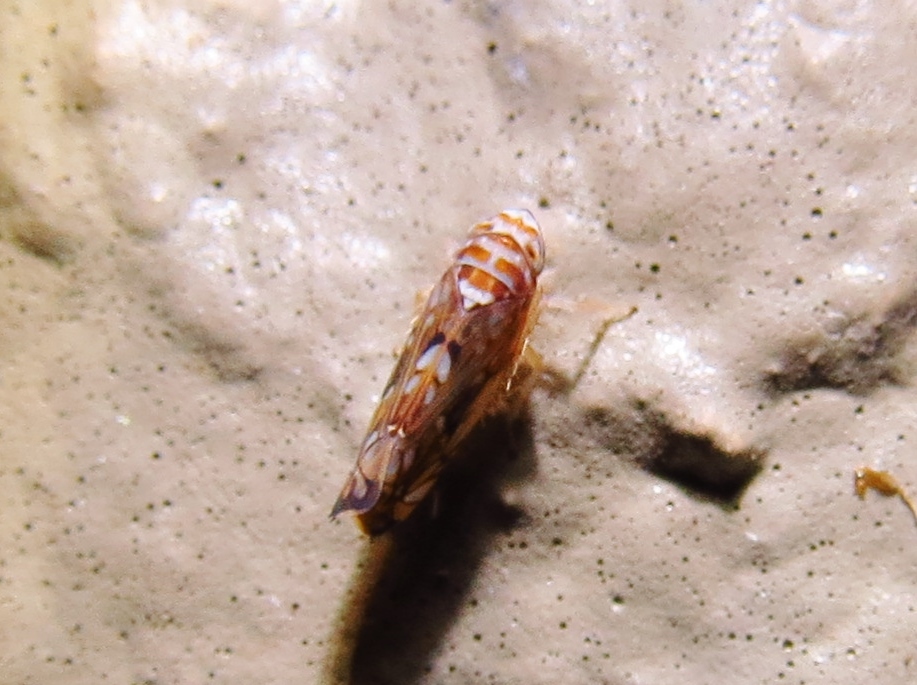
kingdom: Animalia
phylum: Arthropoda
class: Insecta
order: Hemiptera
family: Cicadellidae
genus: Scaphoideus
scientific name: Scaphoideus bifurcatus
